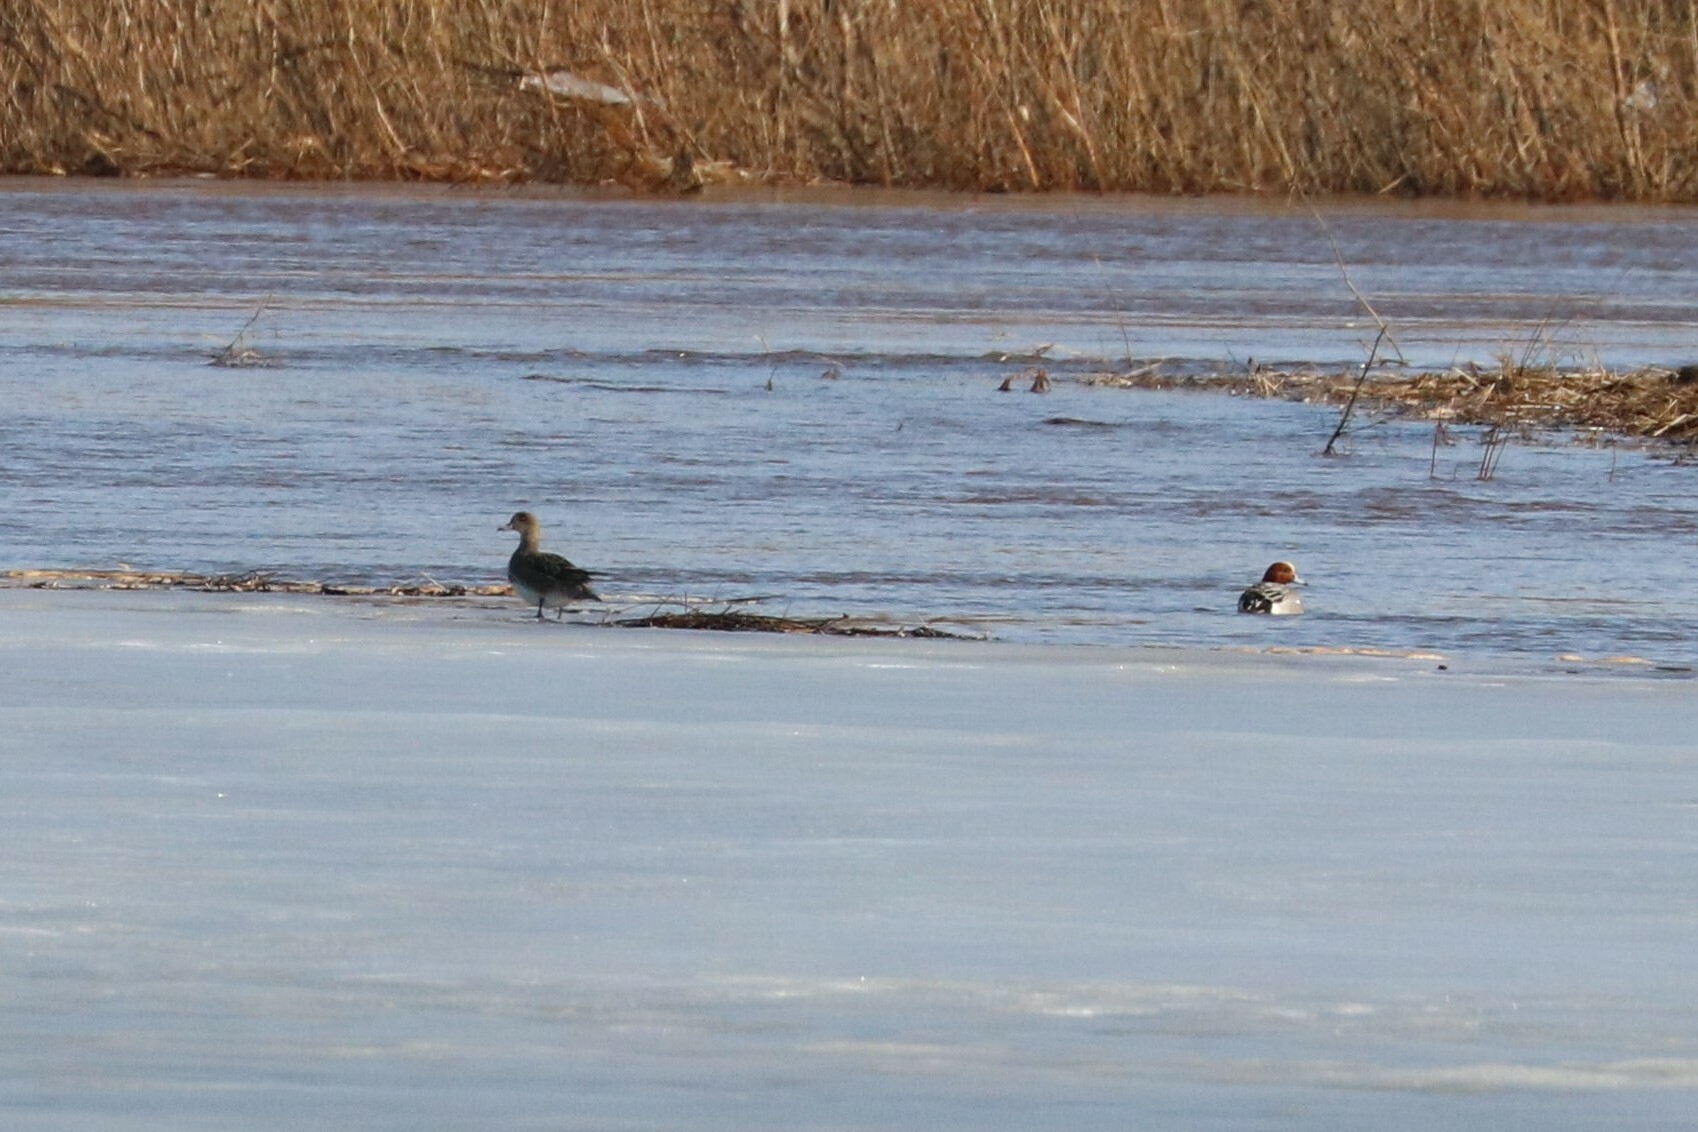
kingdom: Animalia
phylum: Chordata
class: Aves
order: Anseriformes
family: Anatidae
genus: Mareca
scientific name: Mareca penelope
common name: Eurasian wigeon
